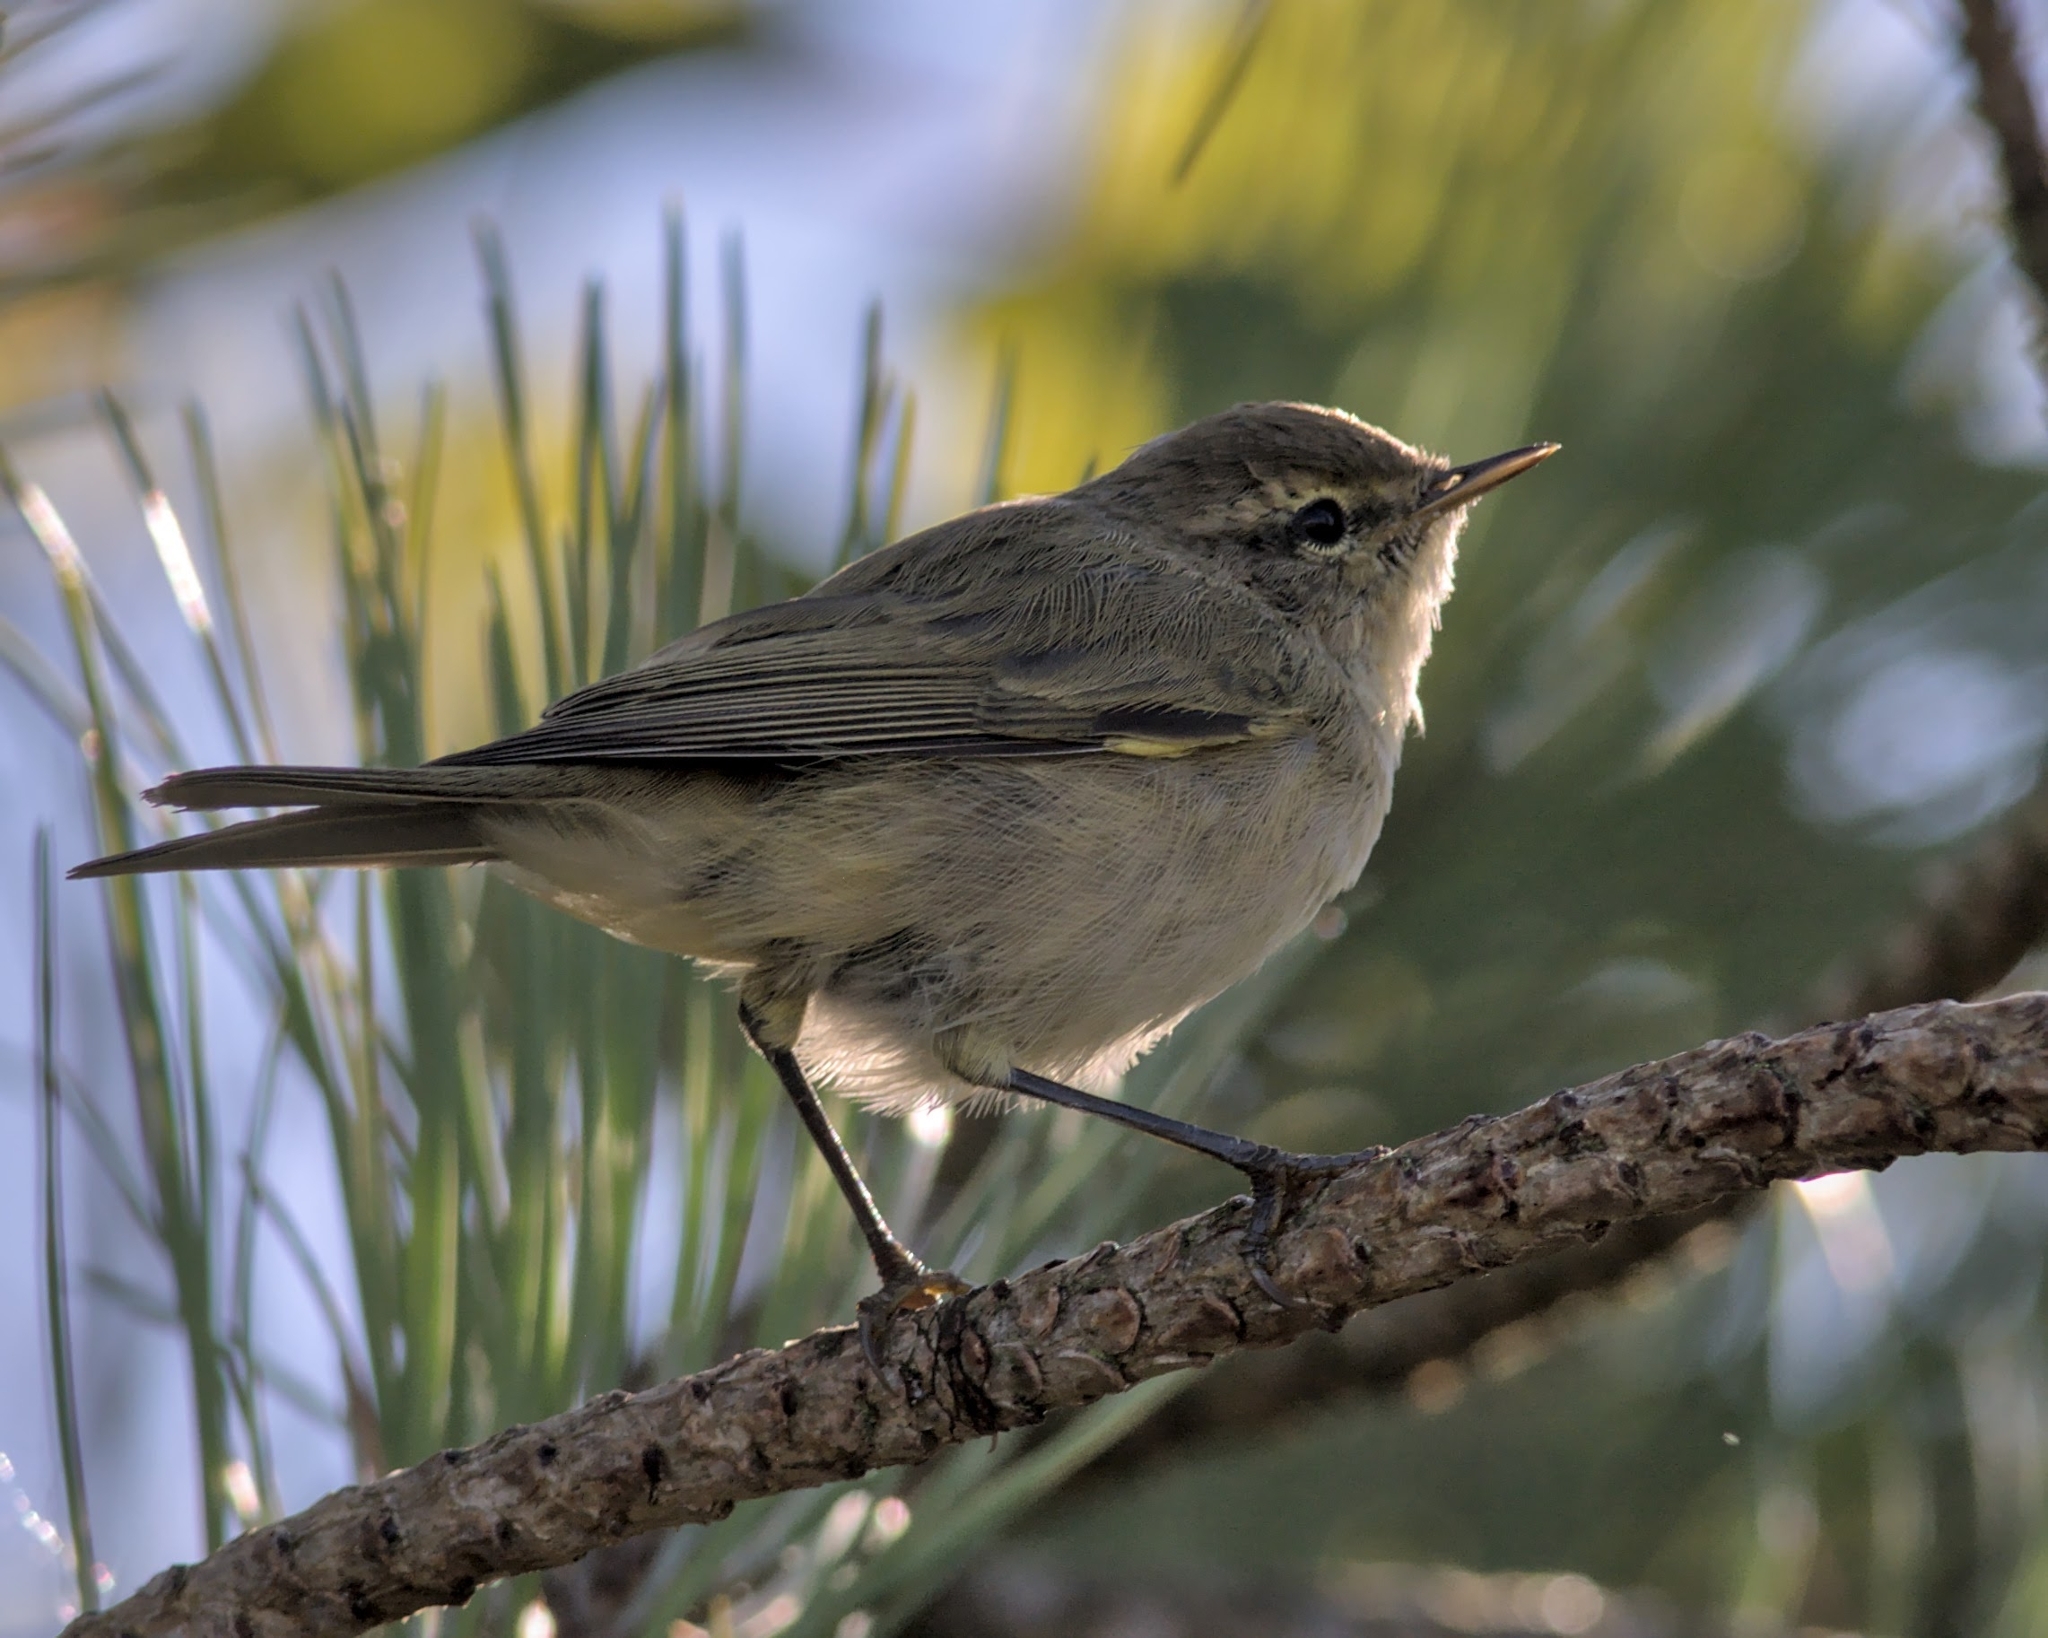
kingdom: Animalia
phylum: Chordata
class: Aves
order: Passeriformes
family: Phylloscopidae
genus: Phylloscopus
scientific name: Phylloscopus collybita
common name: Common chiffchaff
